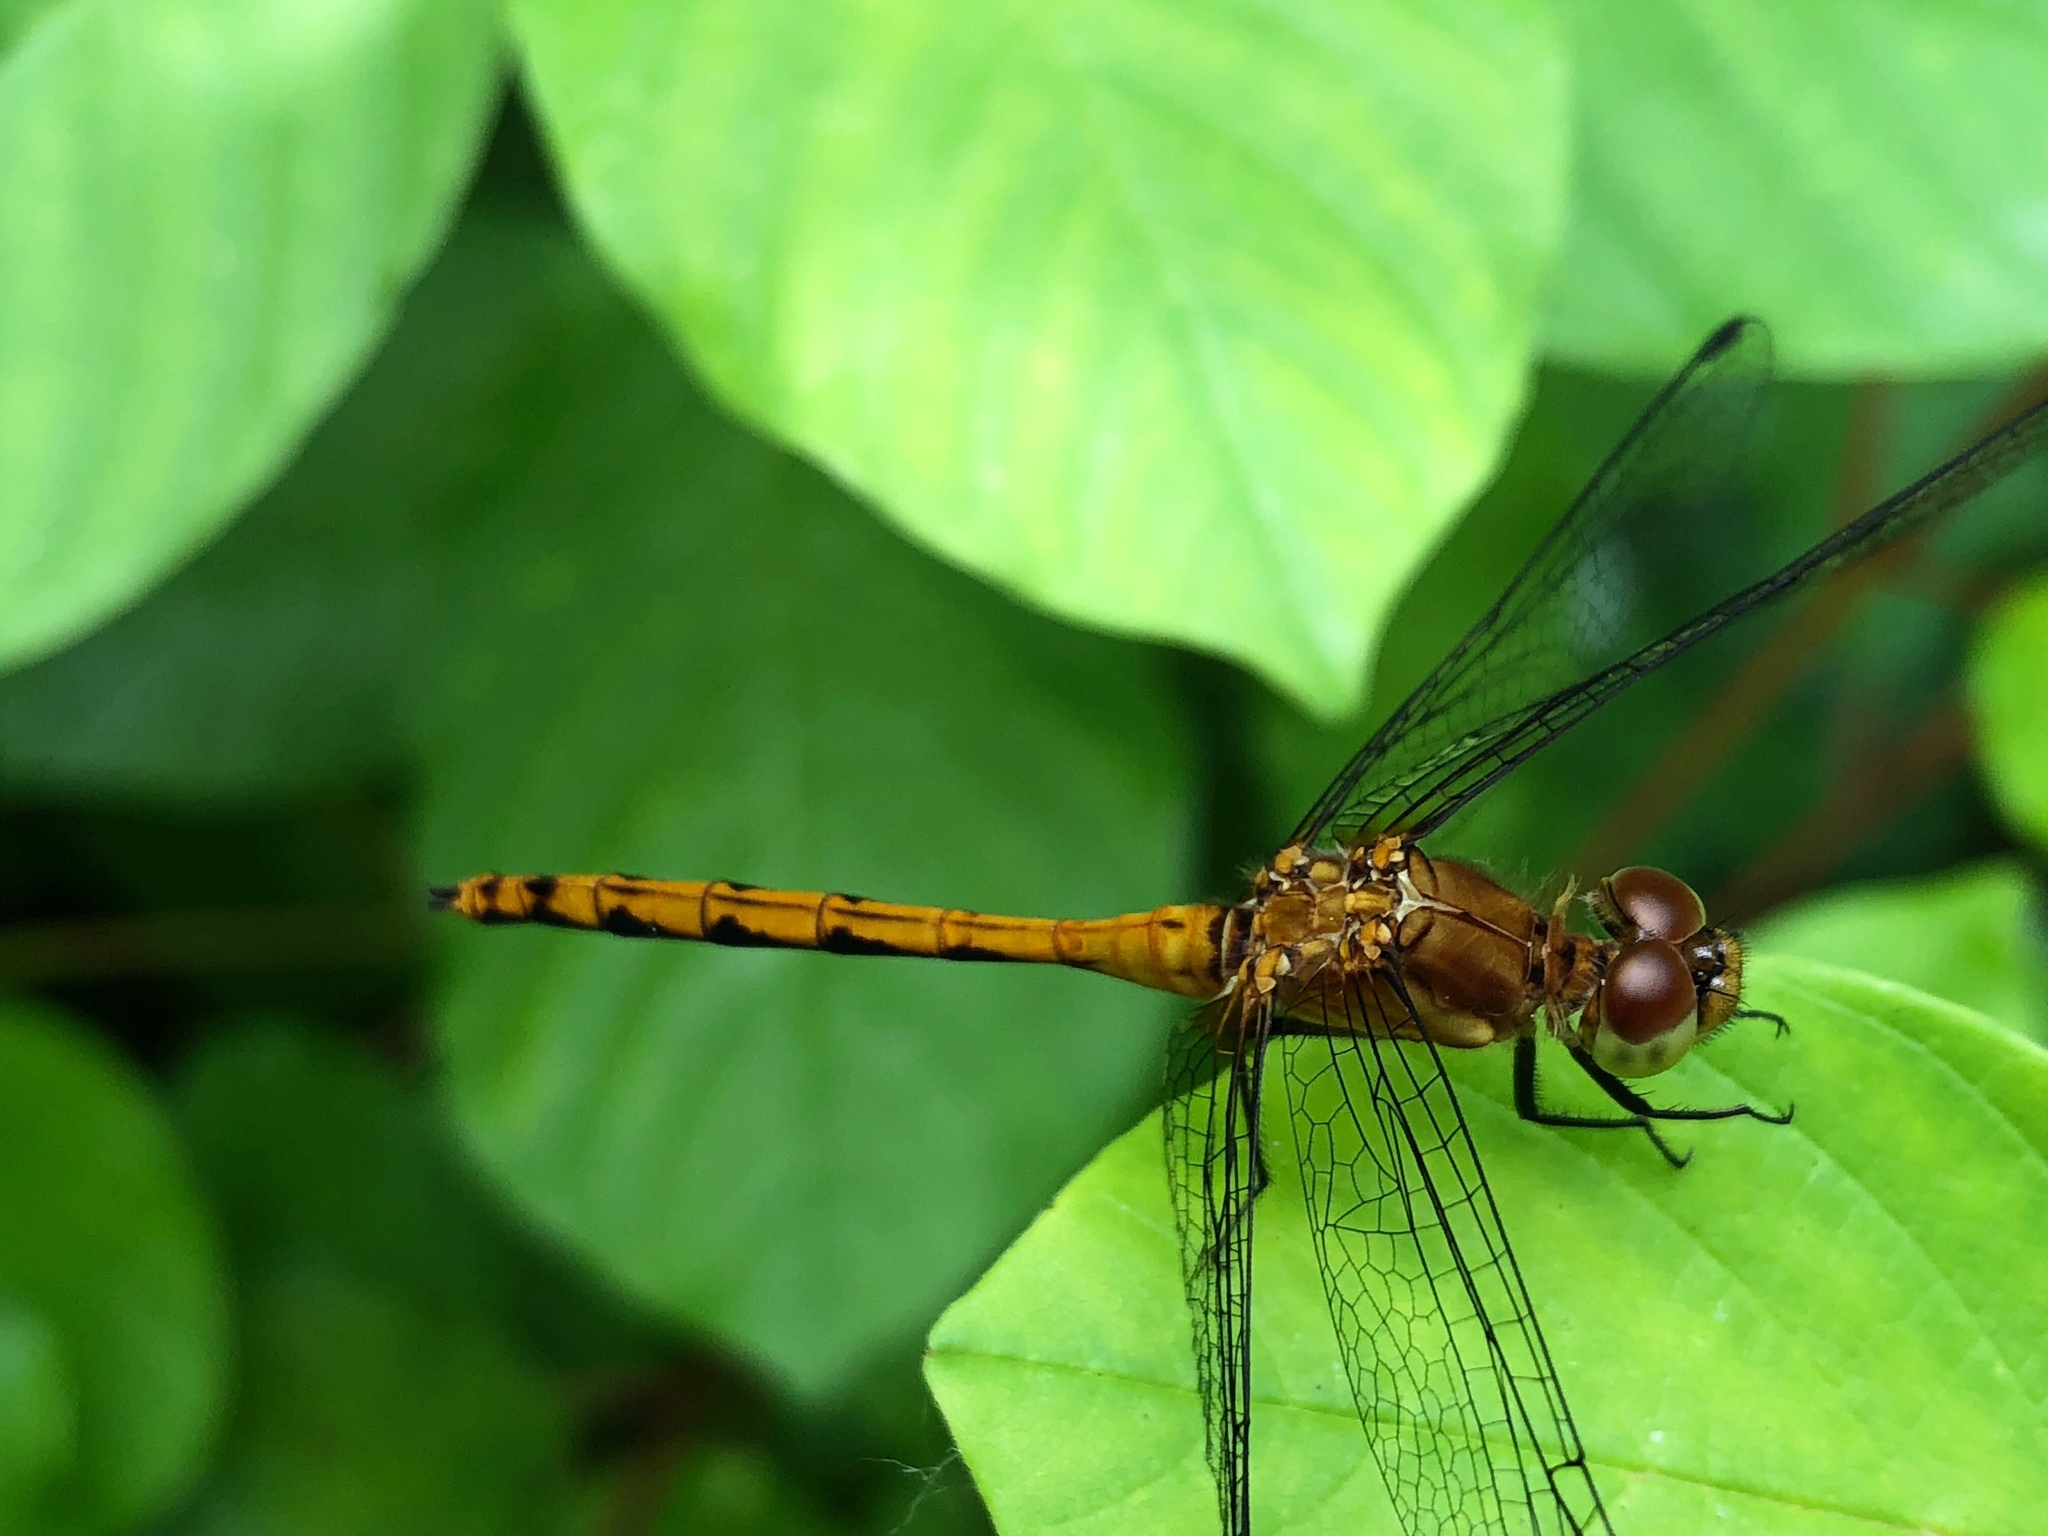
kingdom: Animalia
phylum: Arthropoda
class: Insecta
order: Odonata
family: Libellulidae
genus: Sympetrum
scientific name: Sympetrum
